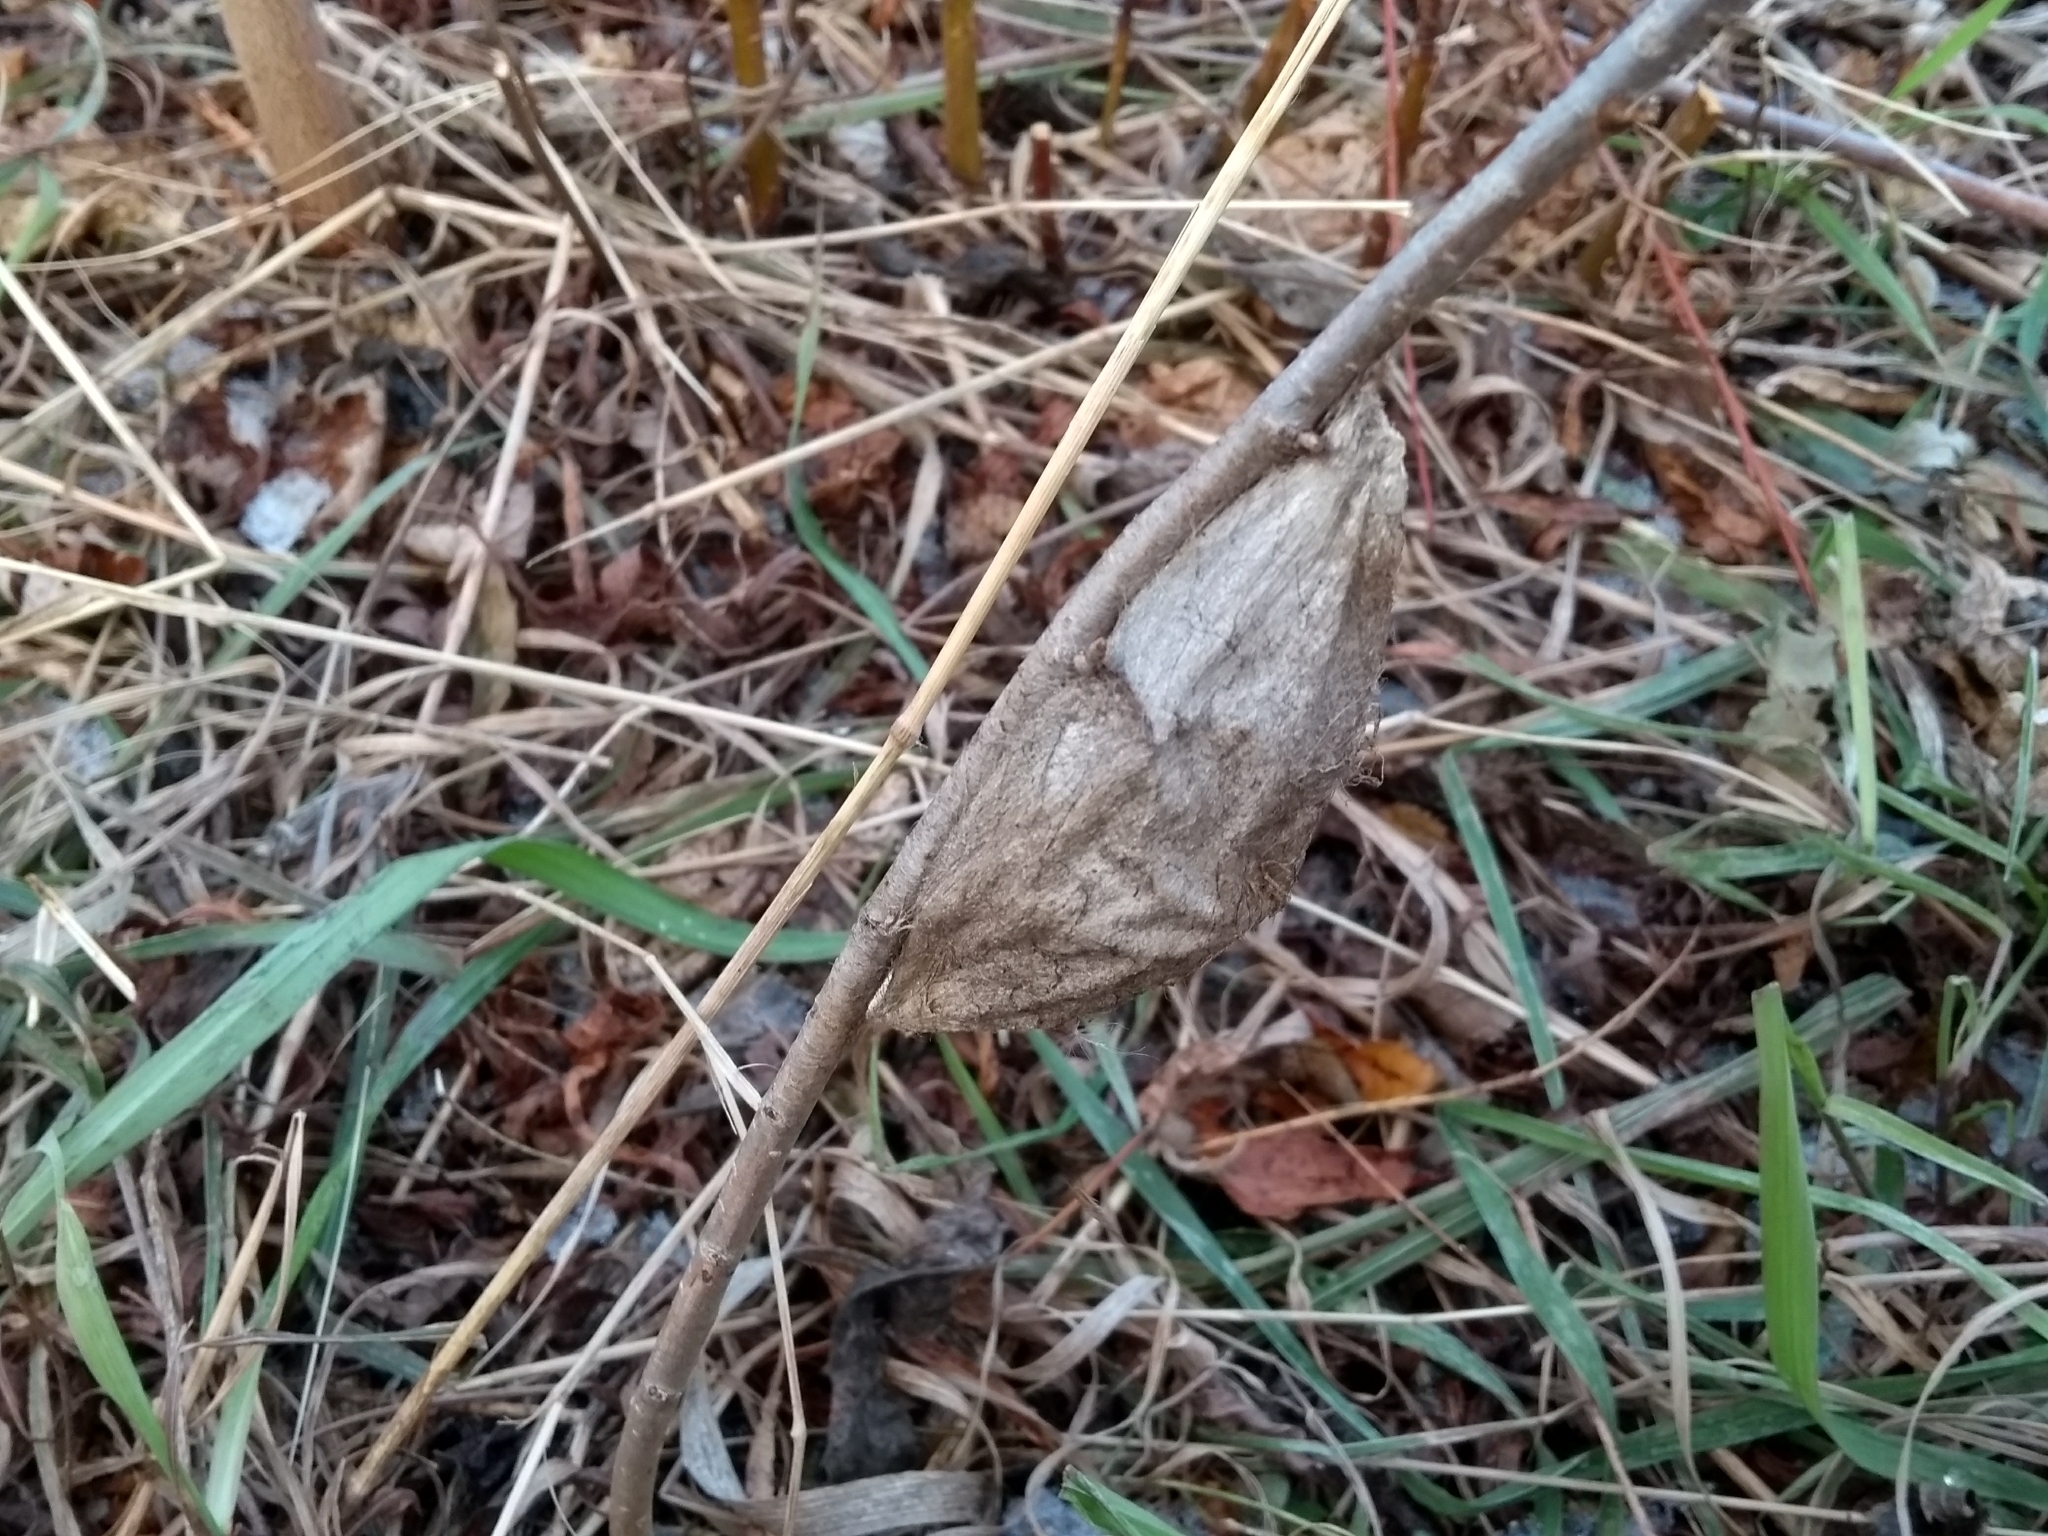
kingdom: Animalia
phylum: Arthropoda
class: Insecta
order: Lepidoptera
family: Saturniidae
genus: Hyalophora
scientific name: Hyalophora cecropia
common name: Cecropia silkmoth
